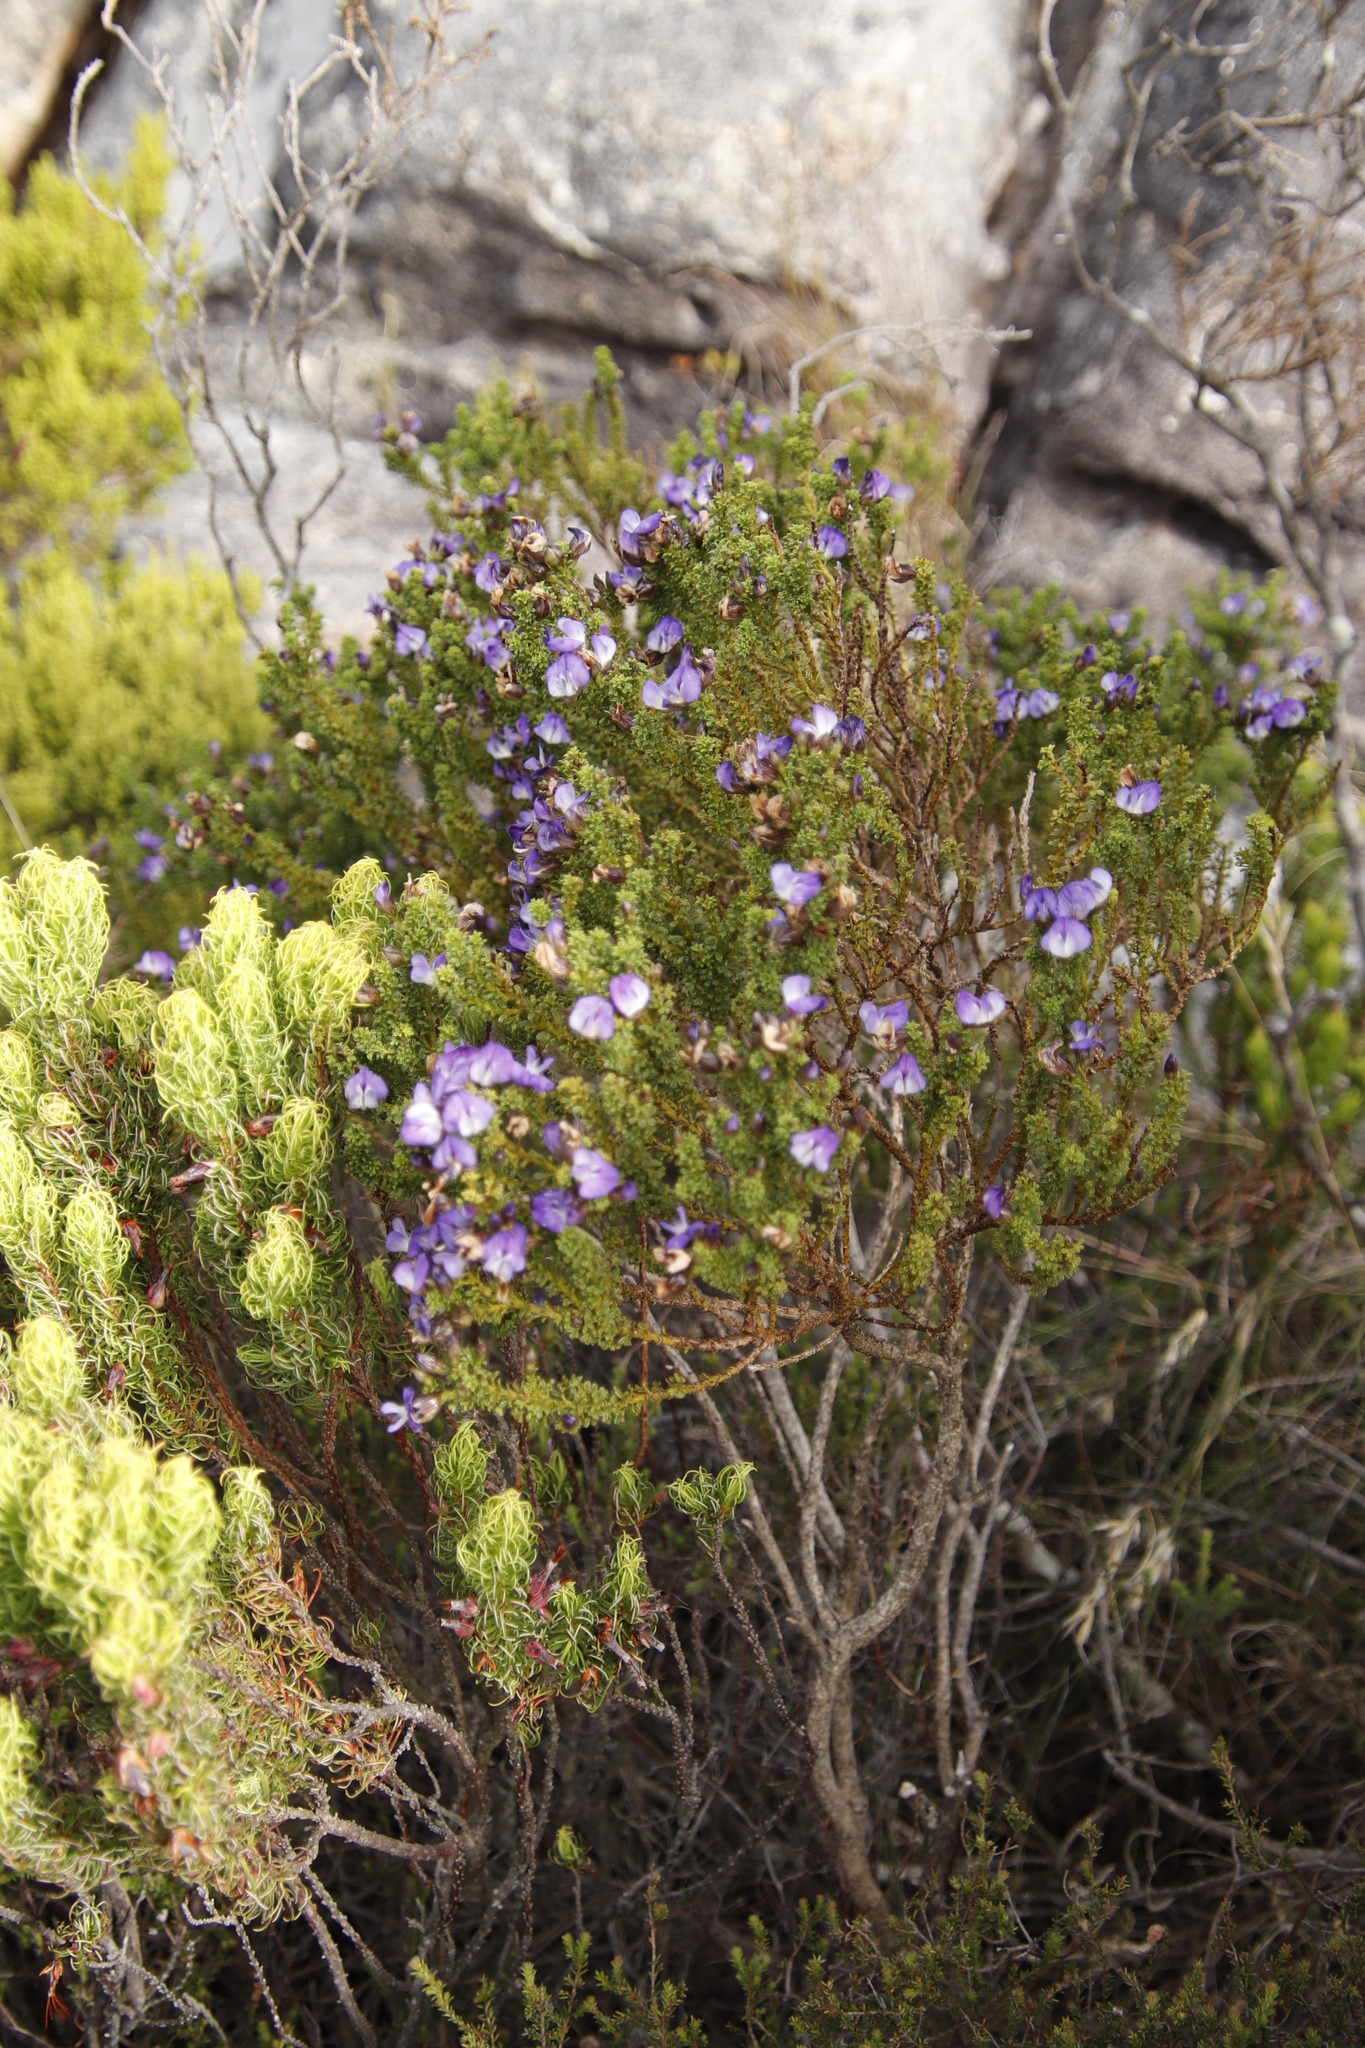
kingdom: Plantae
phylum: Tracheophyta
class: Magnoliopsida
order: Fabales
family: Fabaceae
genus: Psoralea
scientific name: Psoralea aculeata
